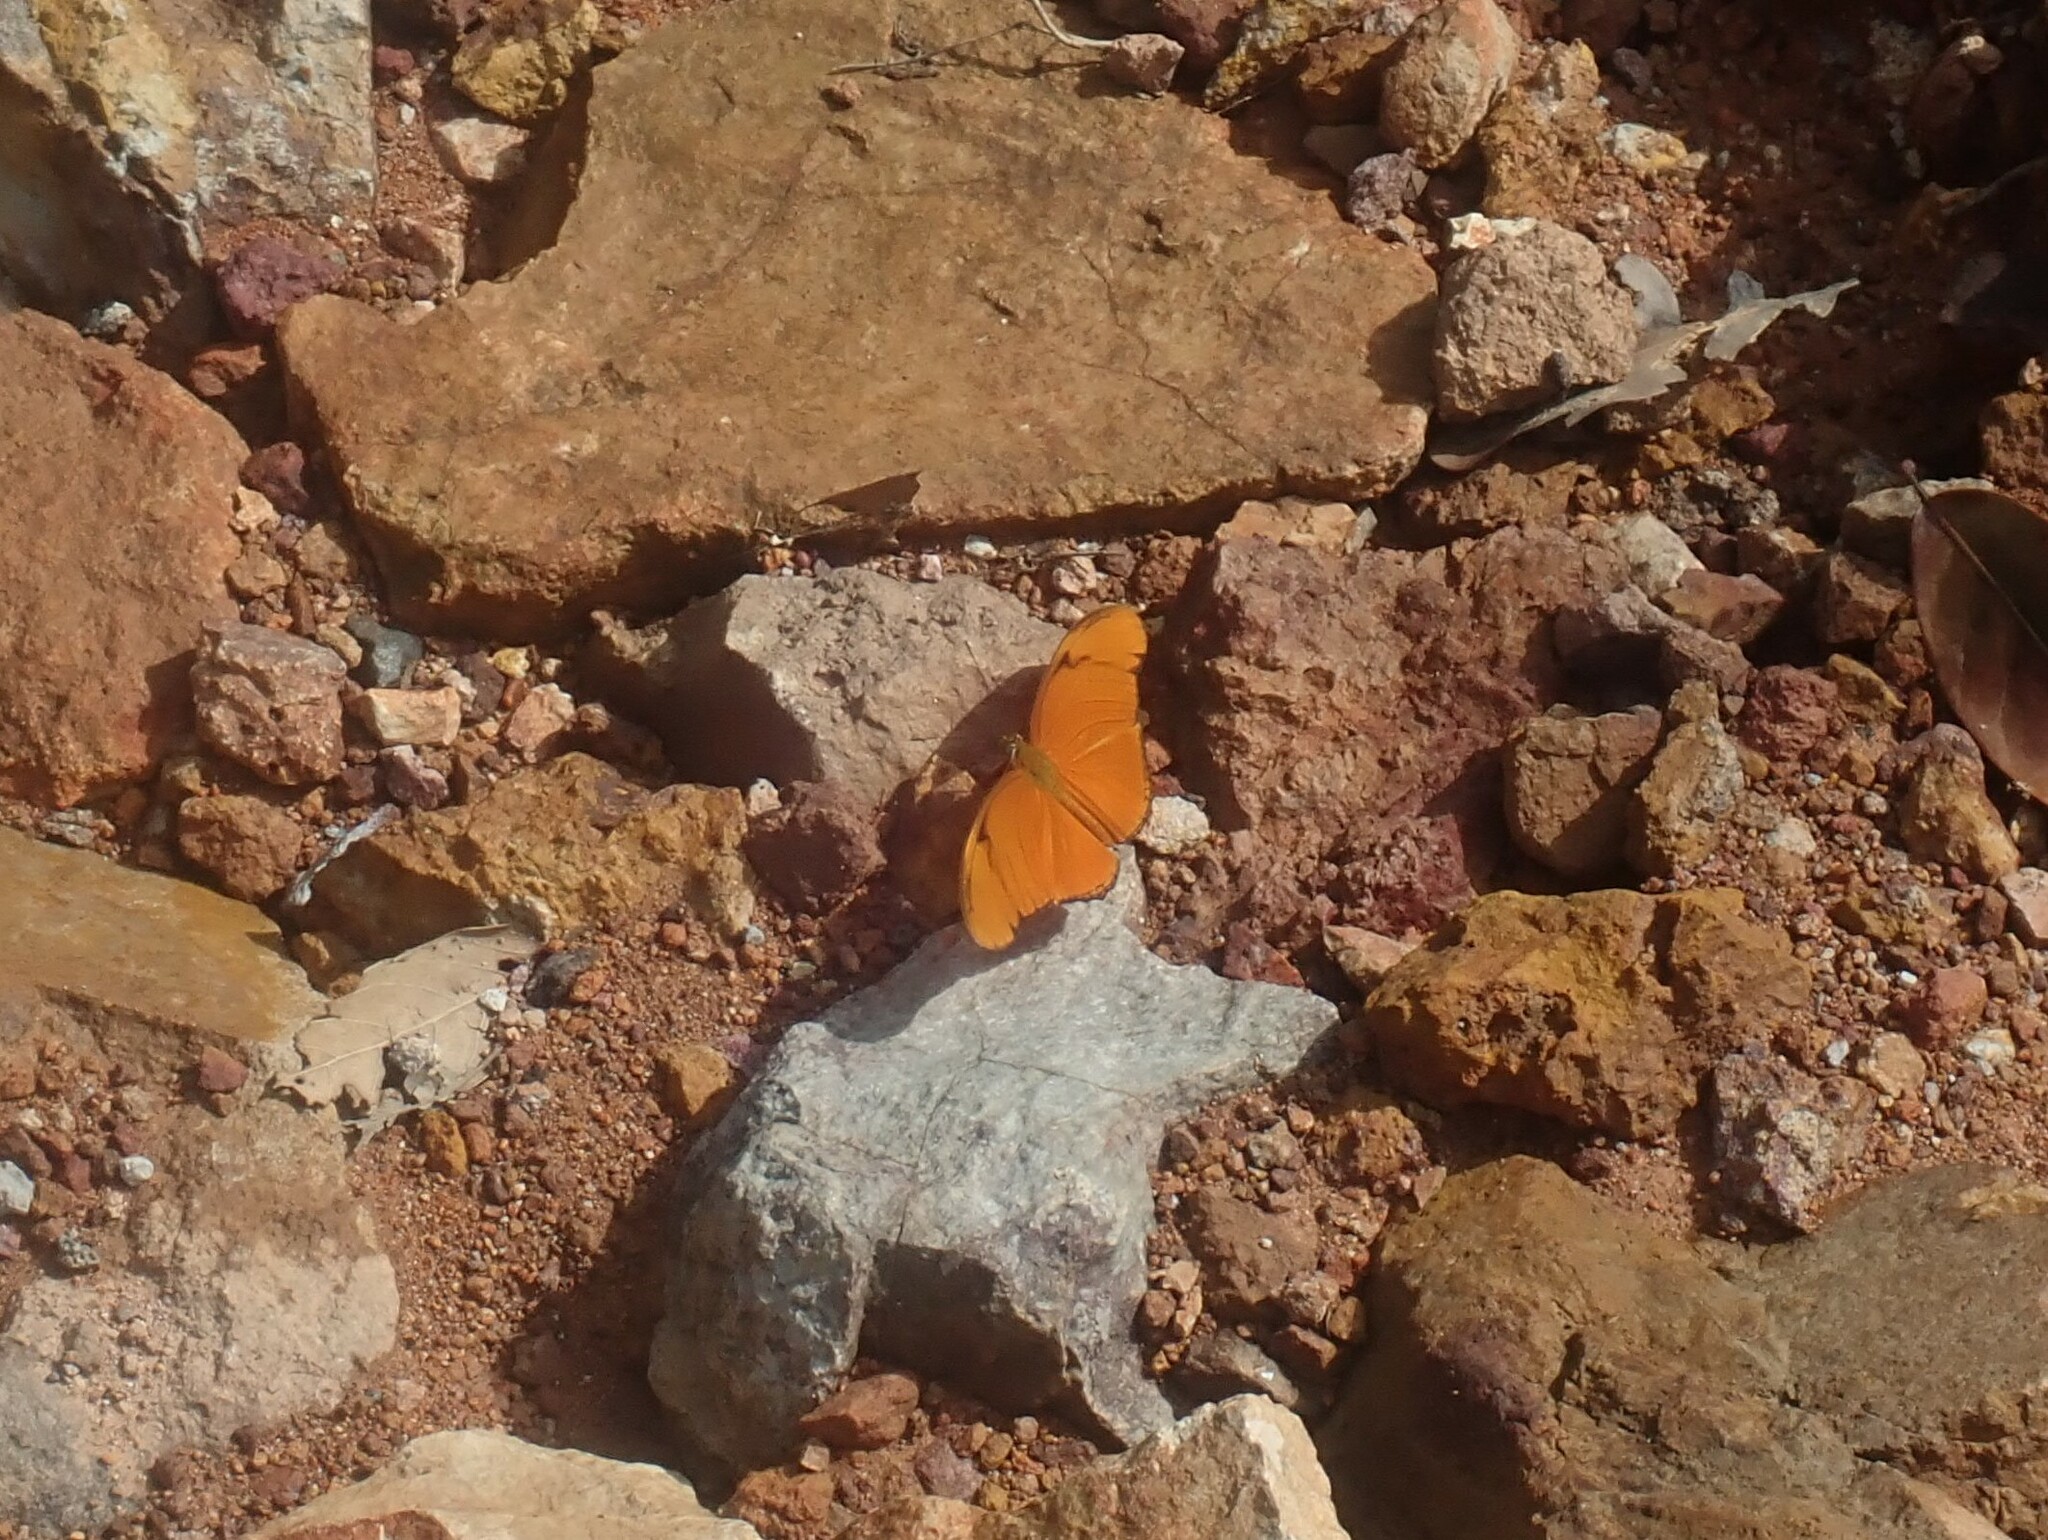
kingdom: Animalia
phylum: Arthropoda
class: Insecta
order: Lepidoptera
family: Nymphalidae
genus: Dryas
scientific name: Dryas iulia
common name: Flambeau
